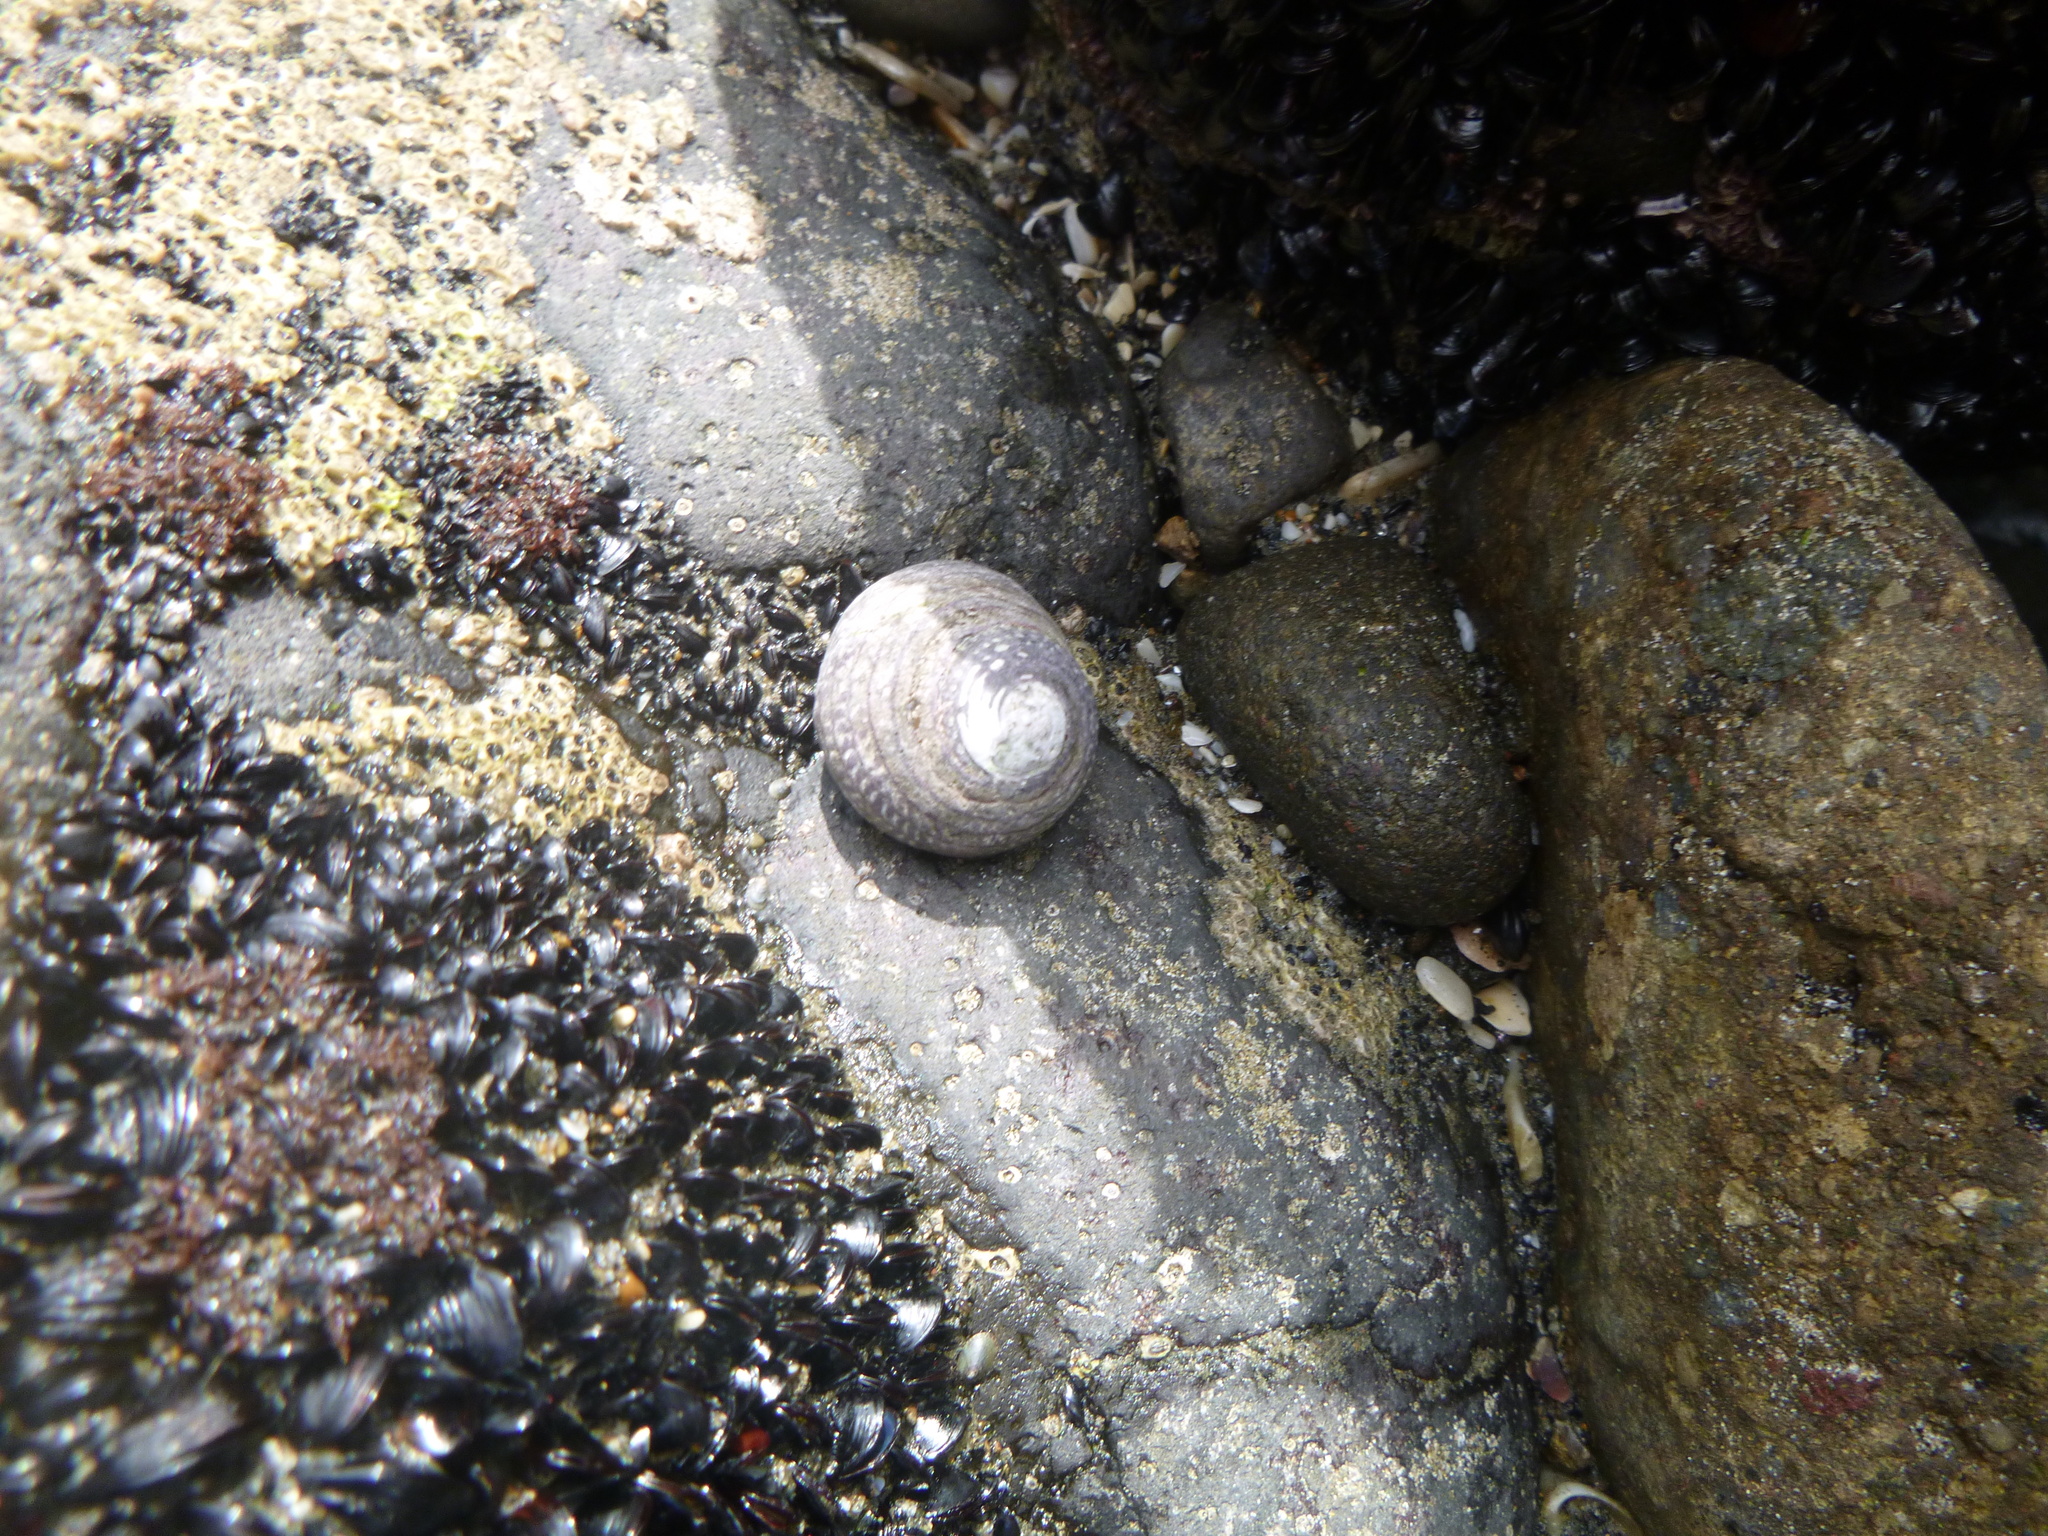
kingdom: Animalia
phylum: Mollusca
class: Gastropoda
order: Trochida
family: Trochidae
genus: Diloma
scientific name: Diloma aethiops
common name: Scorched monodont
